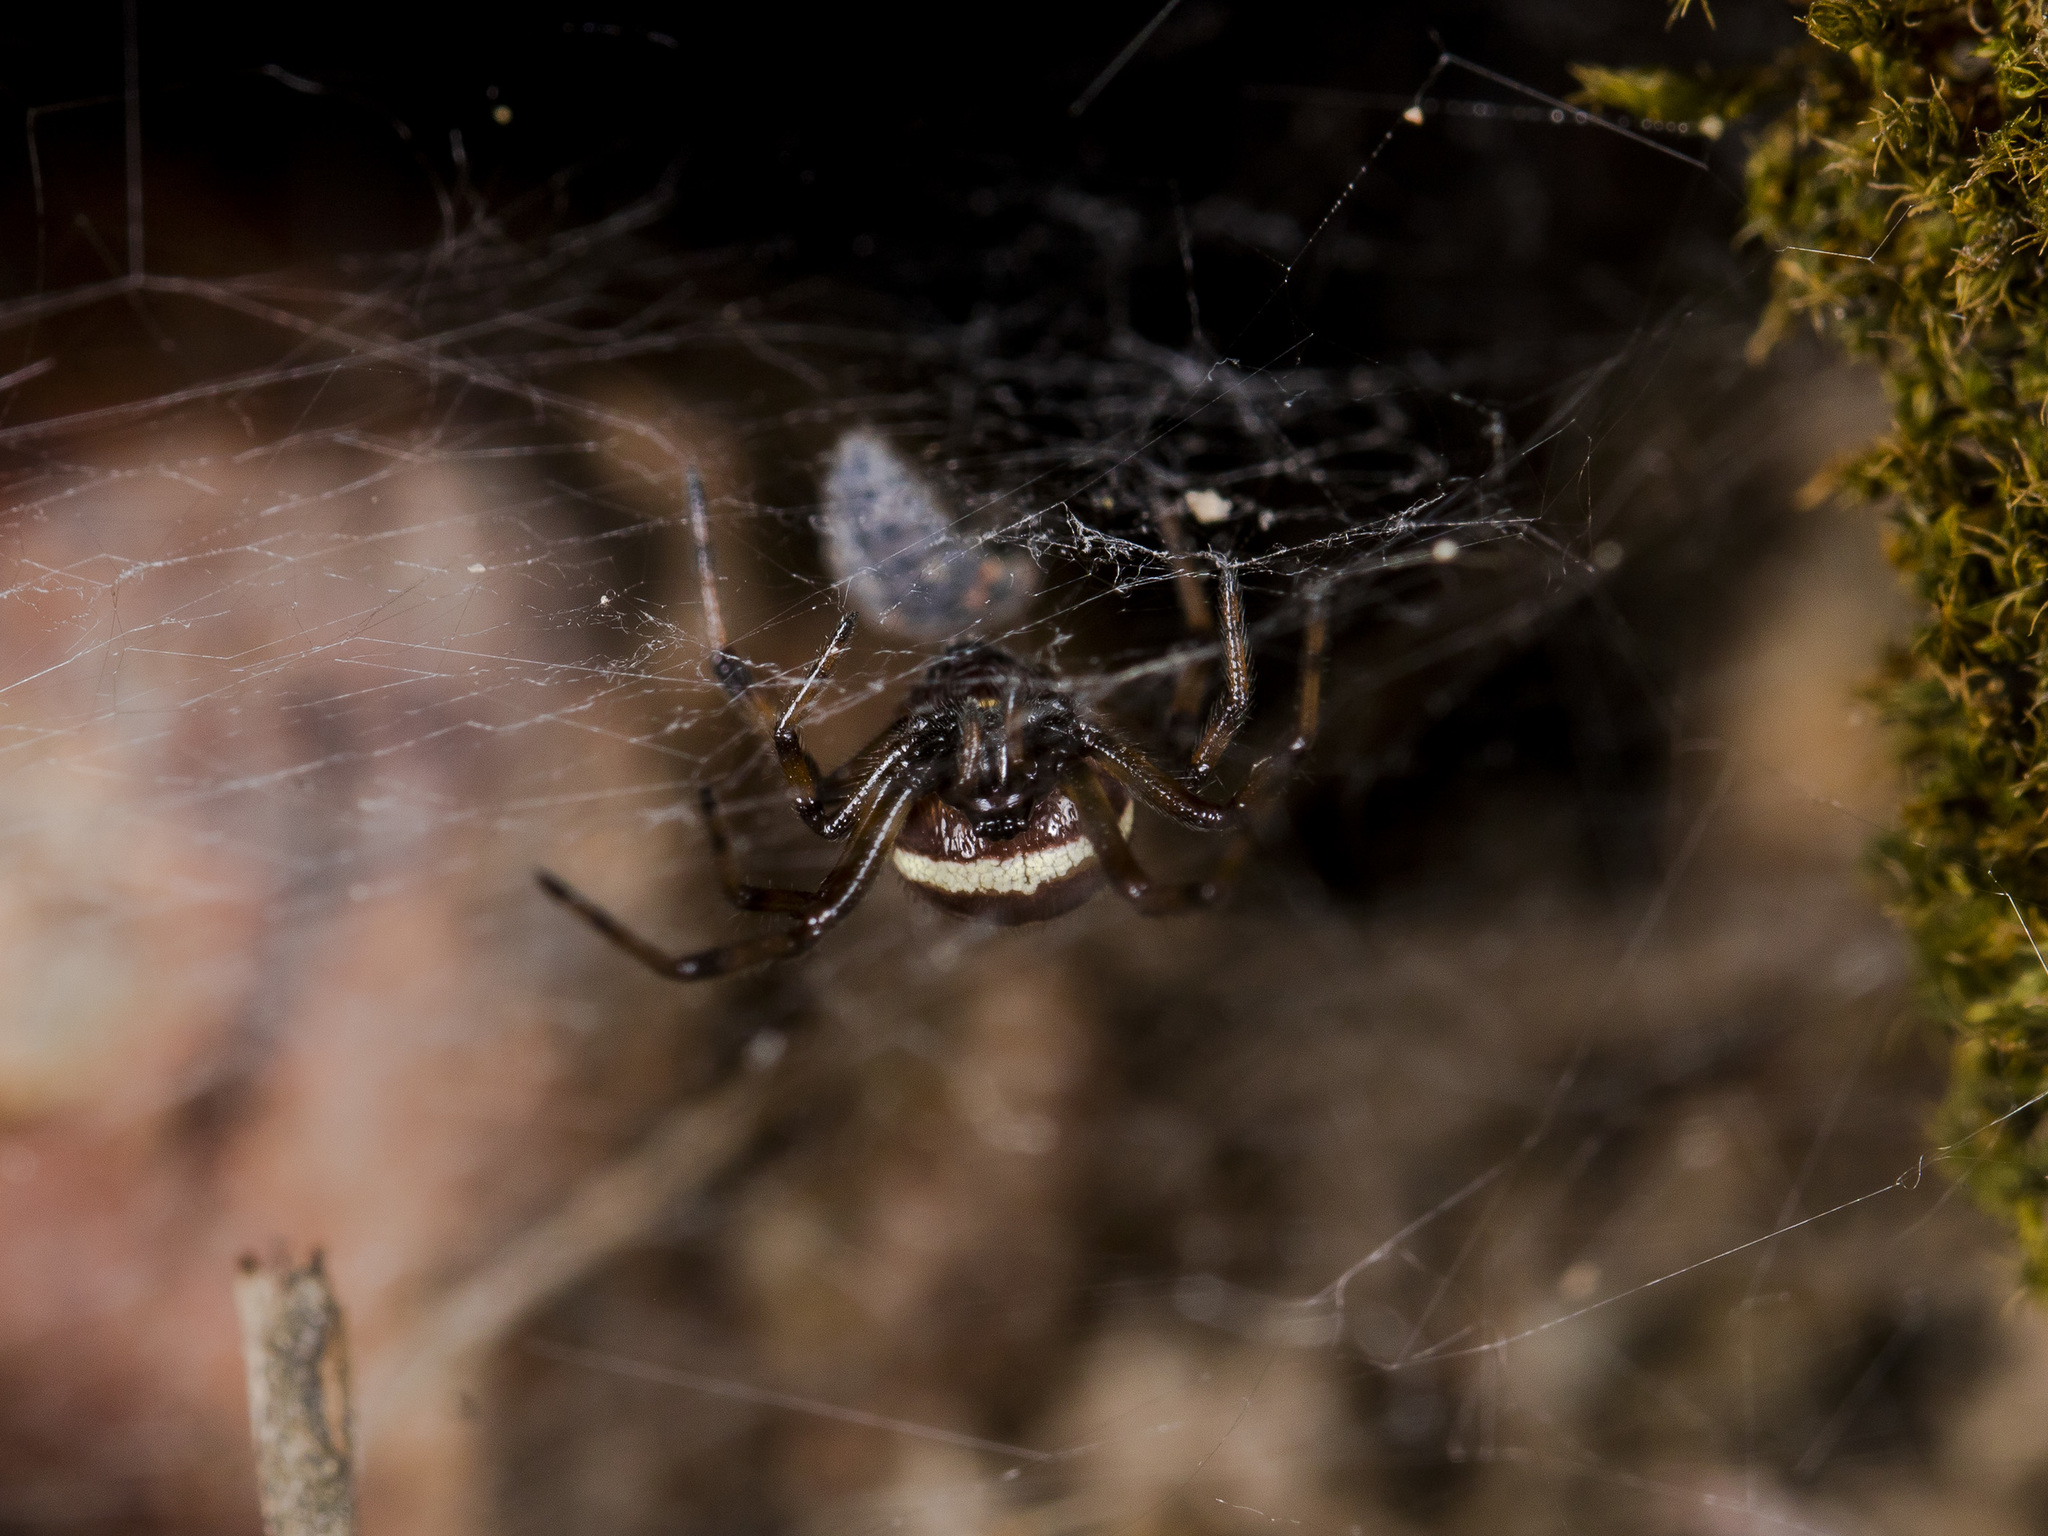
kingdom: Animalia
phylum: Arthropoda
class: Arachnida
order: Araneae
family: Theridiidae
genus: Steatoda
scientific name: Steatoda paykulliana
